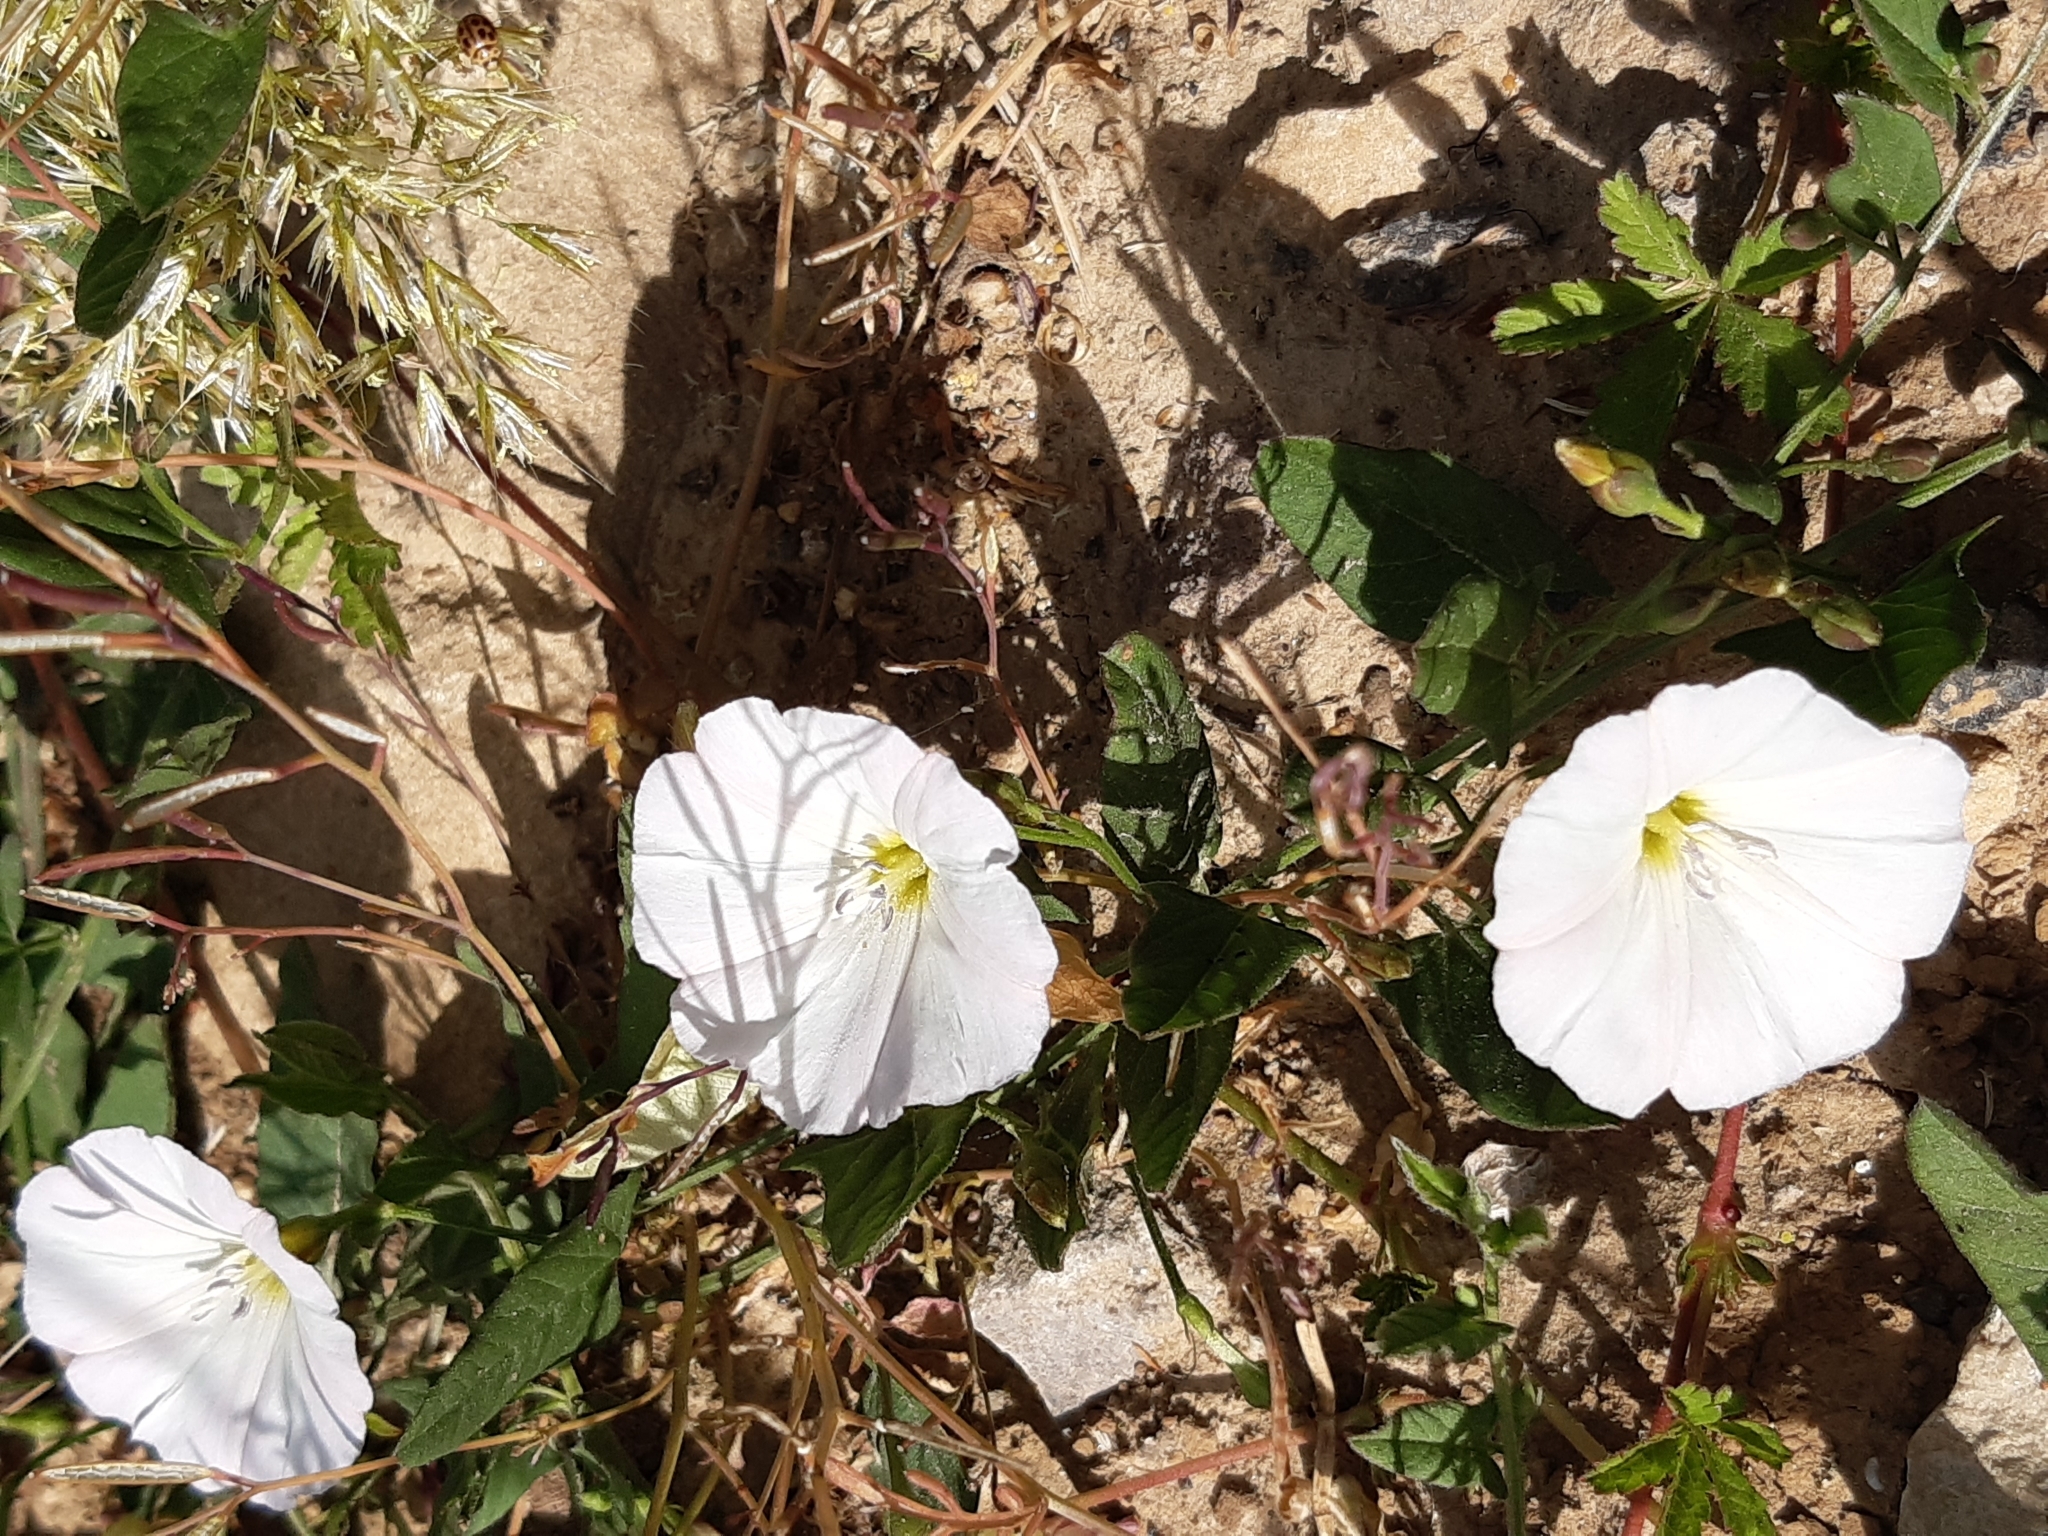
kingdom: Plantae
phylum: Tracheophyta
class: Magnoliopsida
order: Solanales
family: Convolvulaceae
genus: Convolvulus
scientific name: Convolvulus arvensis
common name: Field bindweed
